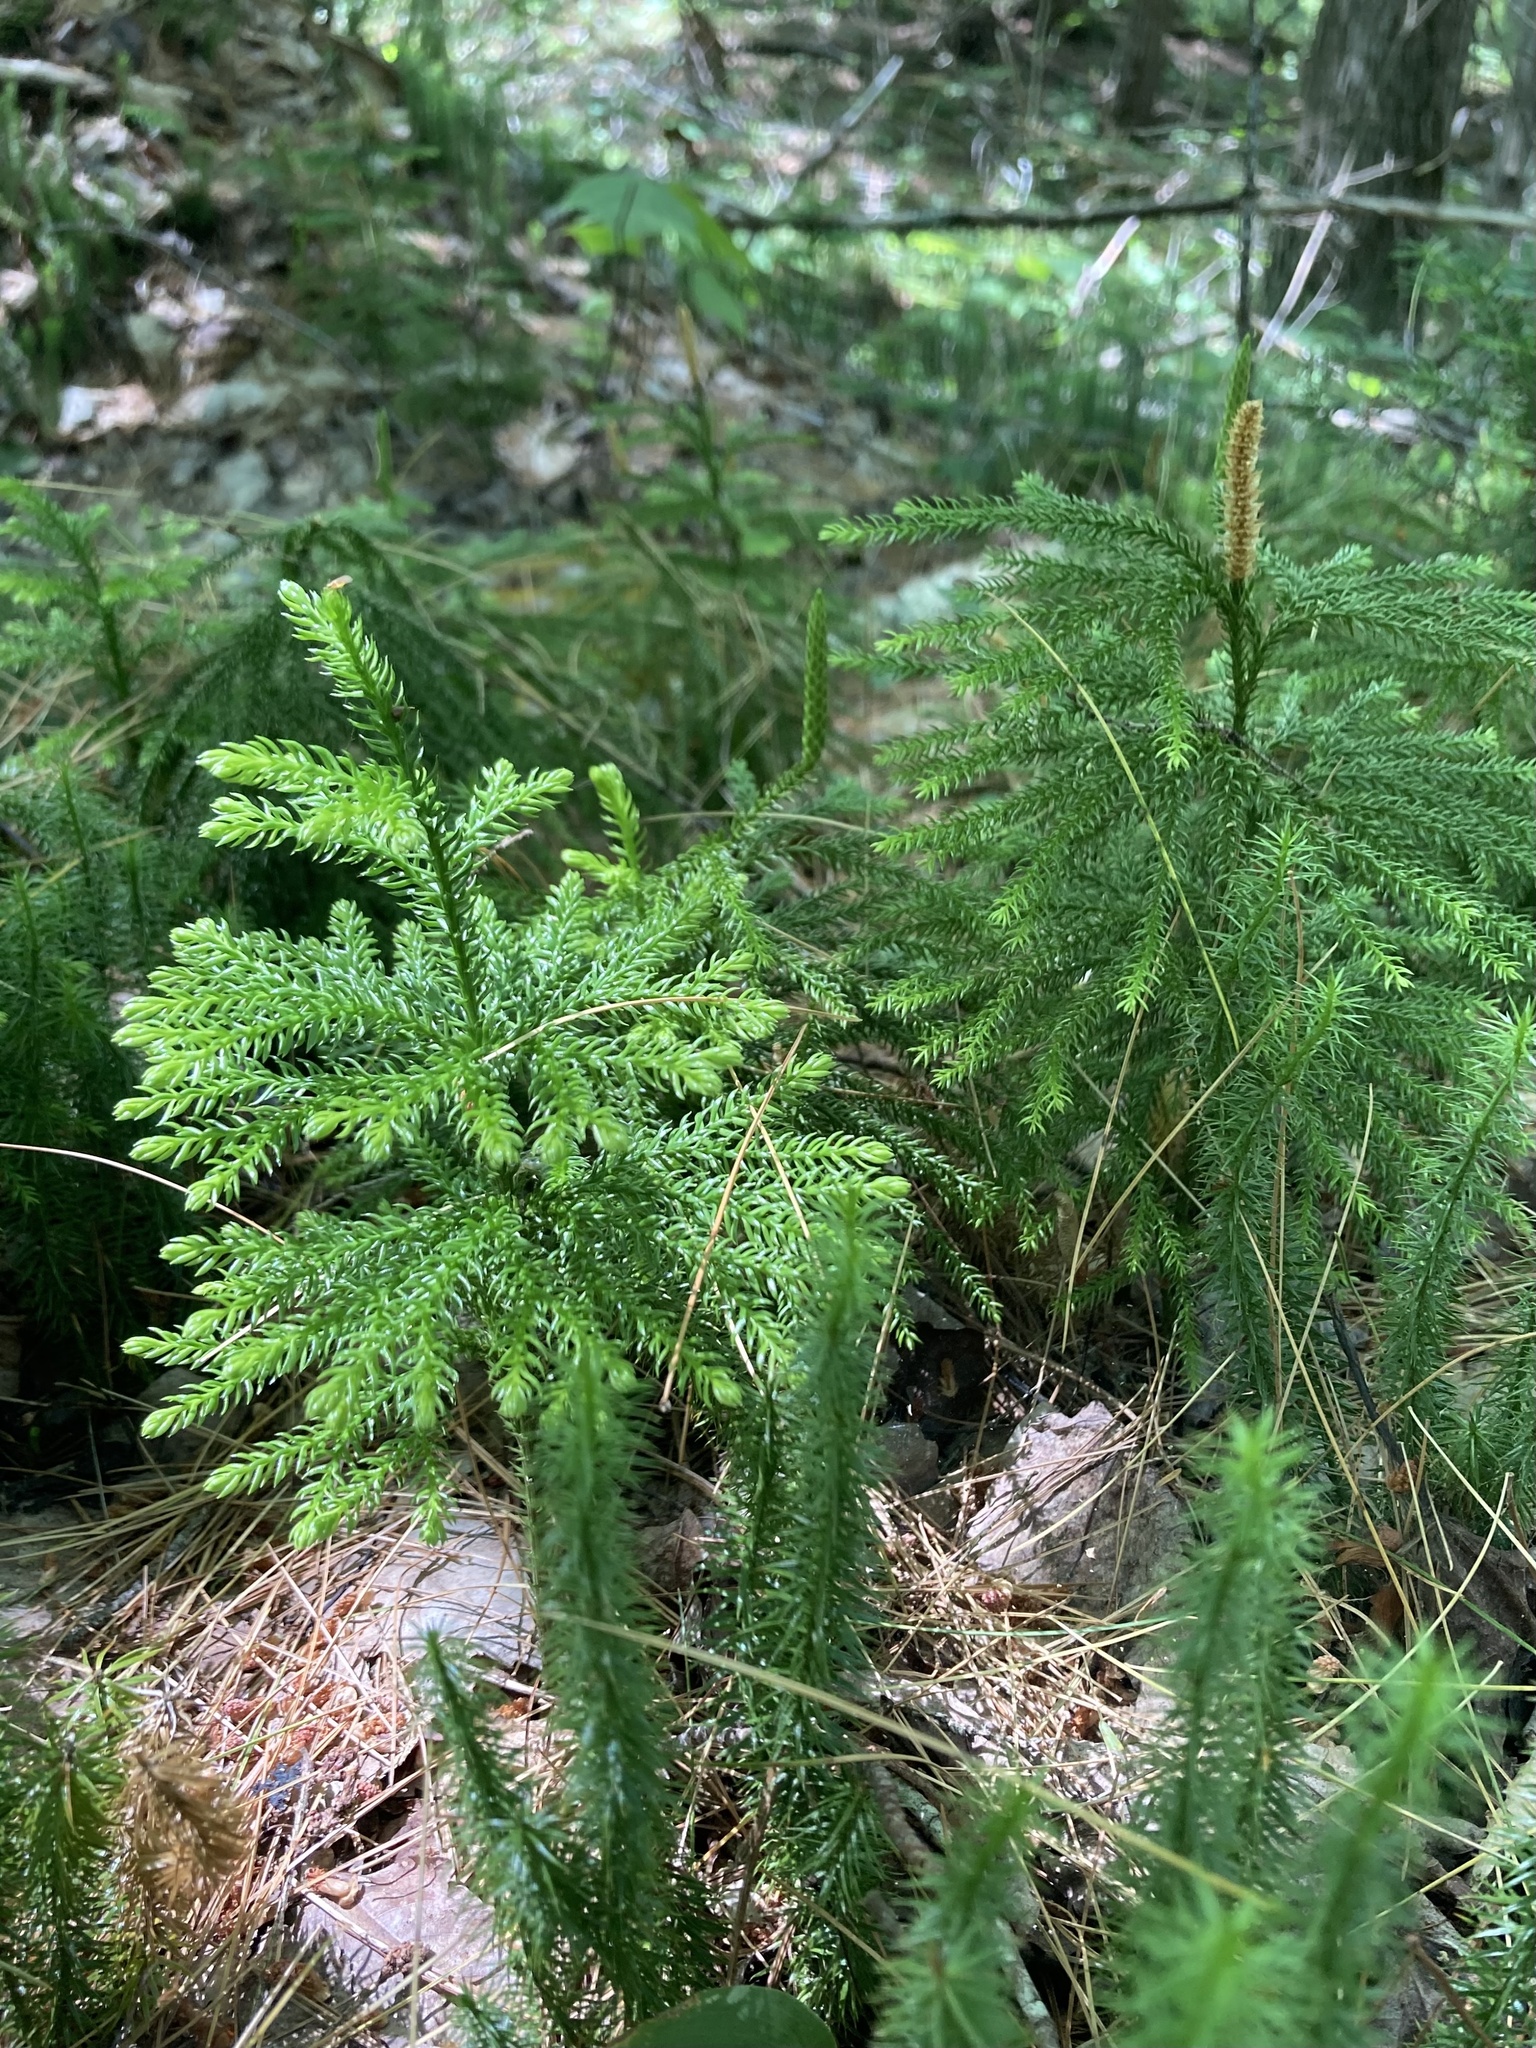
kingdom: Plantae
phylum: Tracheophyta
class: Lycopodiopsida
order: Lycopodiales
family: Lycopodiaceae
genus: Dendrolycopodium
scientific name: Dendrolycopodium dendroideum
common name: Northern tree-clubmoss
